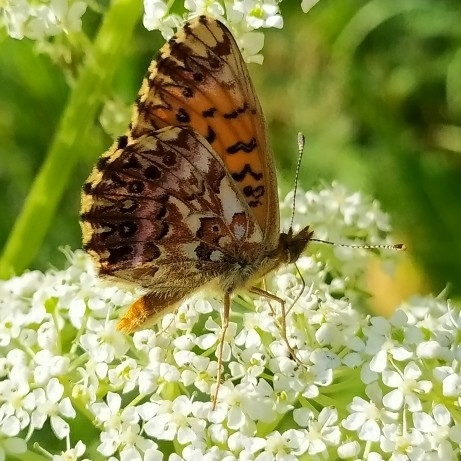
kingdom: Animalia
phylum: Arthropoda
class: Insecta
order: Lepidoptera
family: Nymphalidae
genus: Boloria
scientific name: Boloria titania
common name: Titania's fritillary
